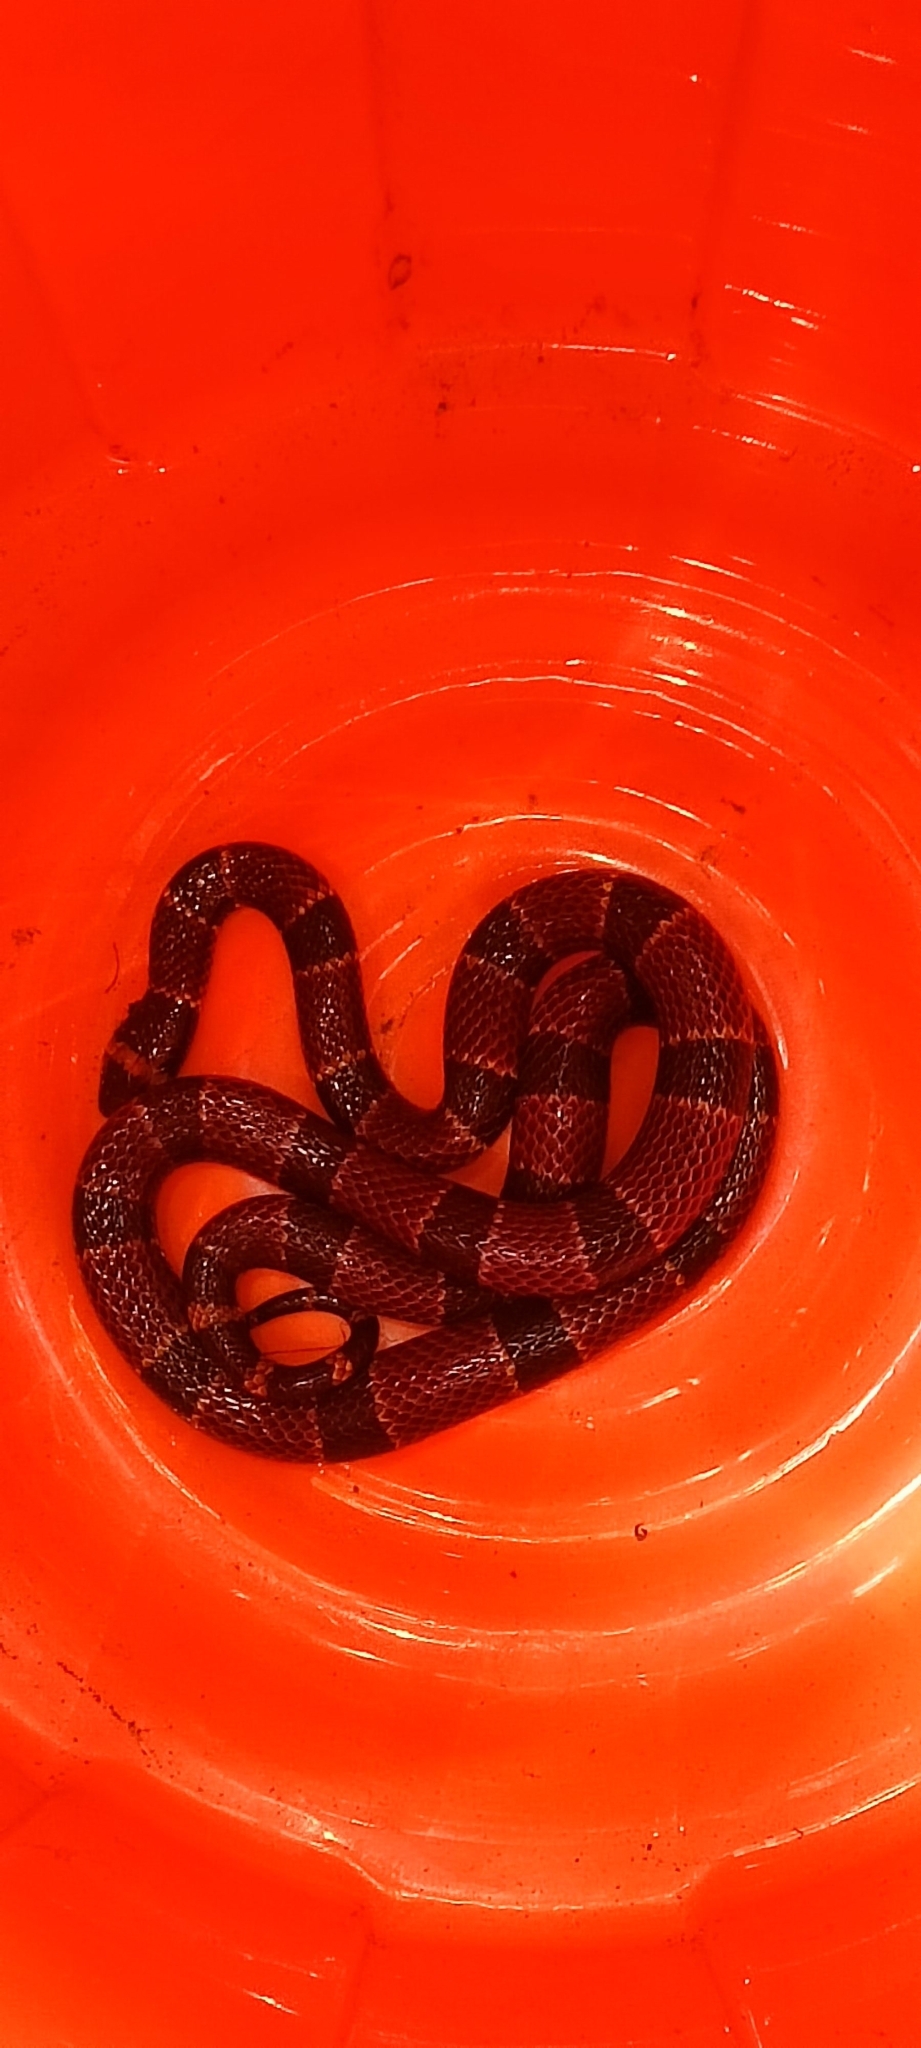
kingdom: Animalia
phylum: Chordata
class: Squamata
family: Elapidae
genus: Micrurus
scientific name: Micrurus tener
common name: Texas coral snake
